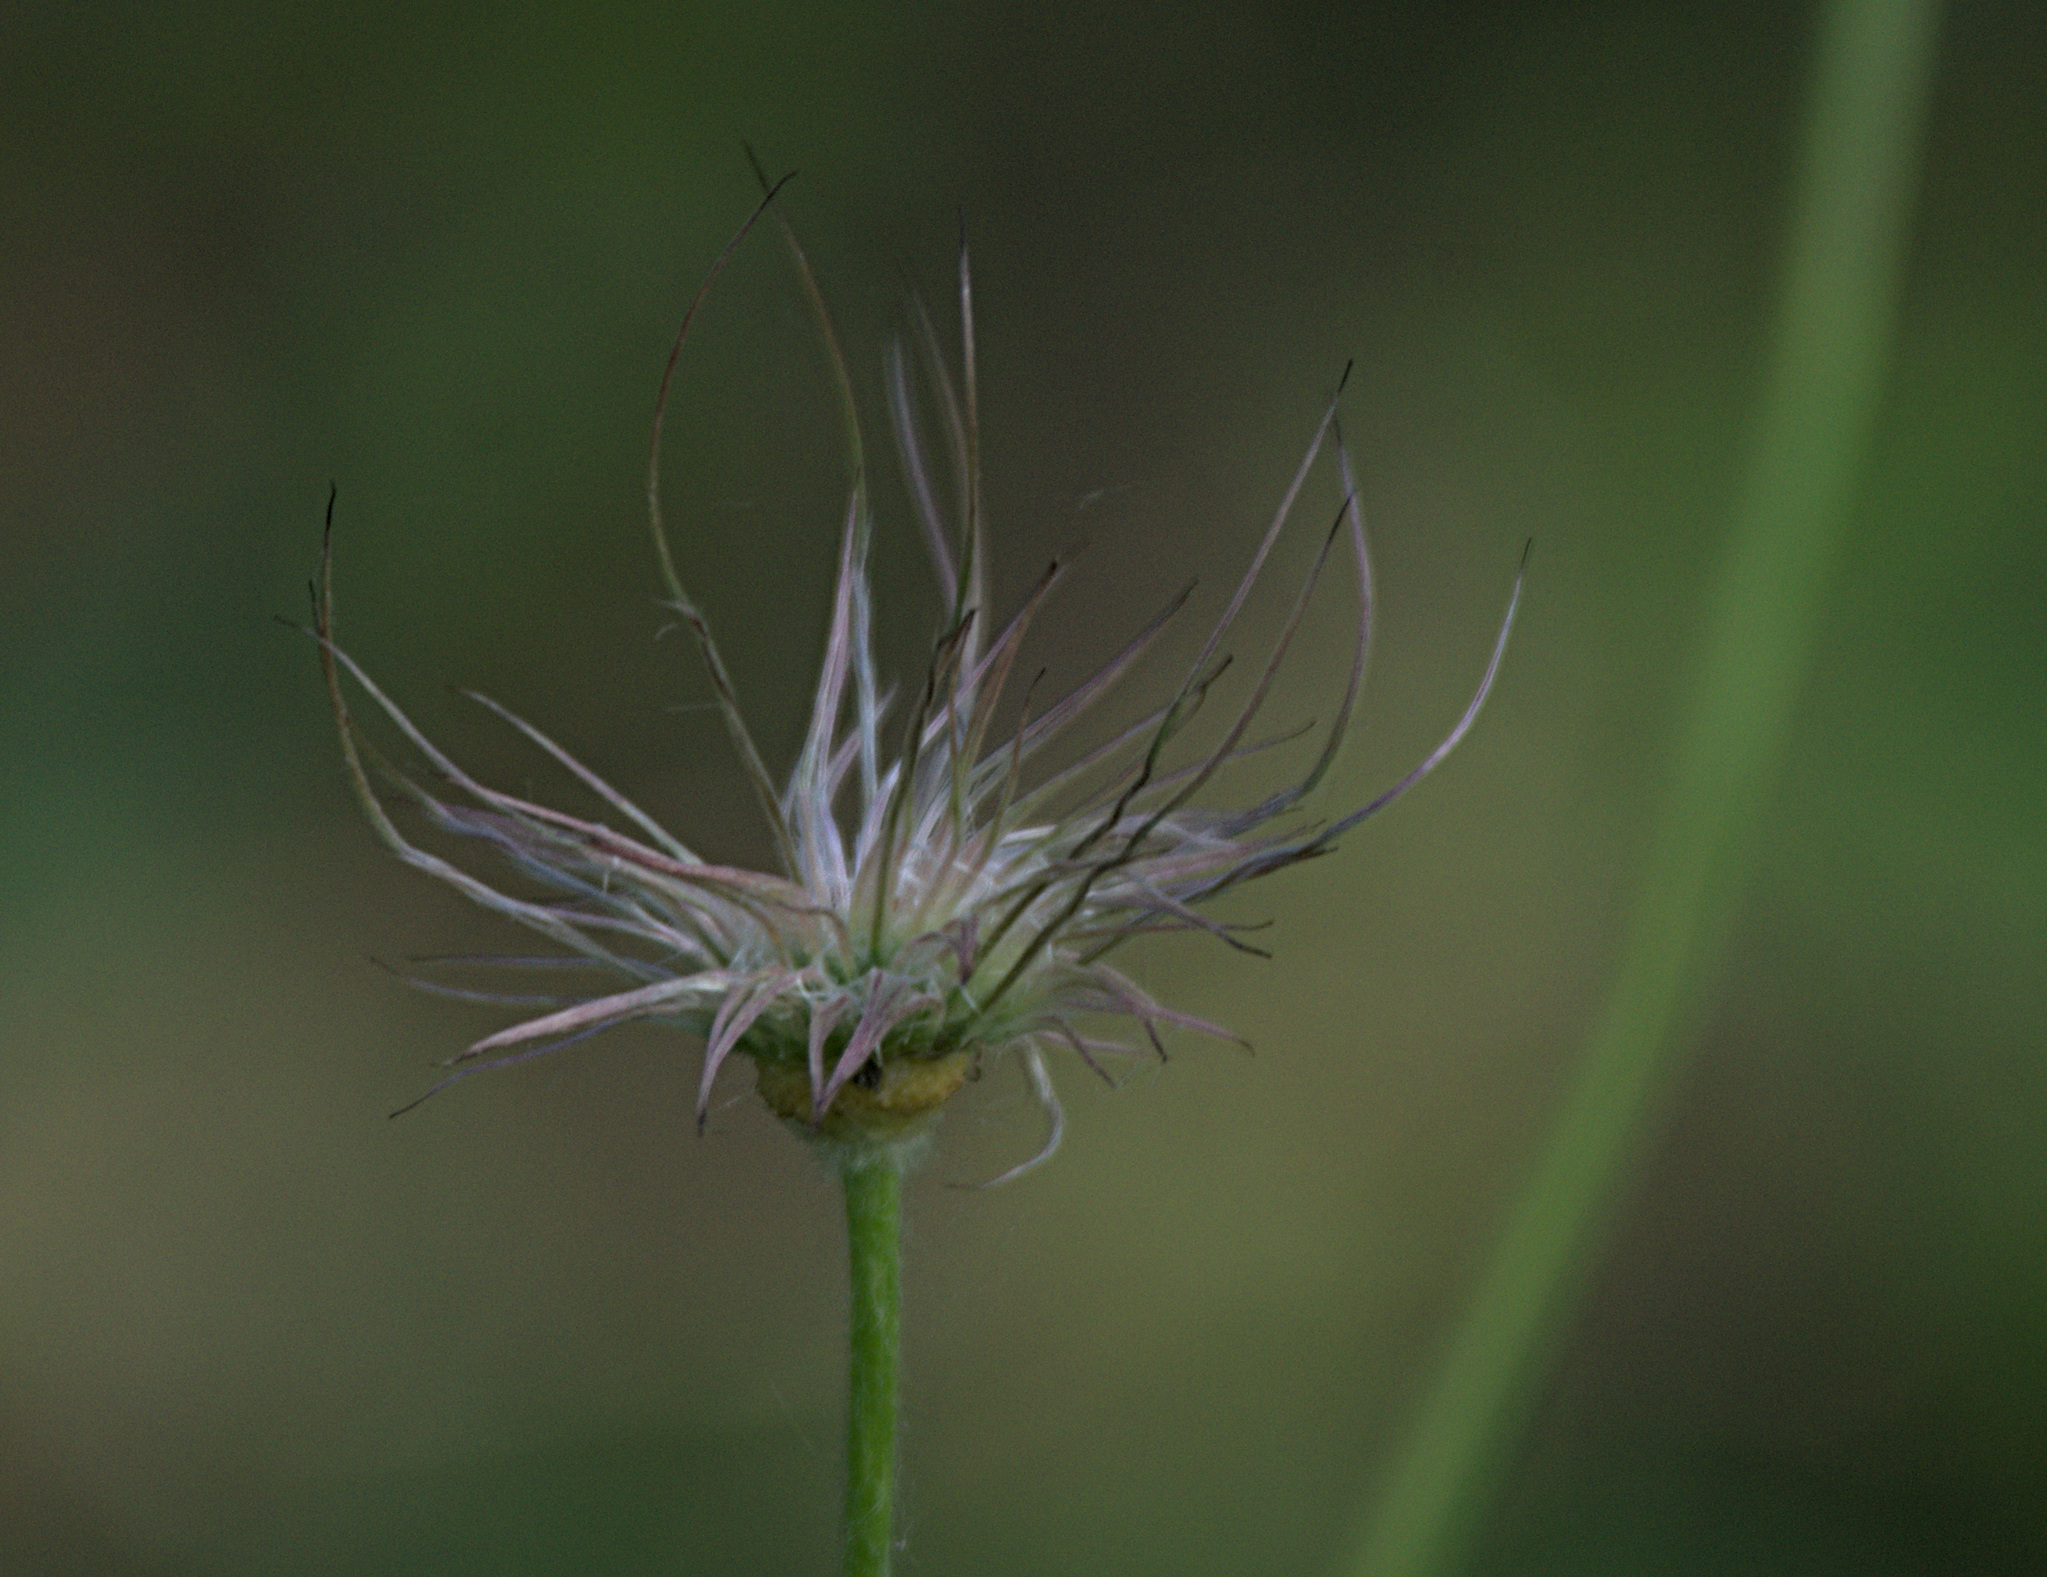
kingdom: Plantae
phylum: Tracheophyta
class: Magnoliopsida
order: Ranunculales
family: Ranunculaceae
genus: Pulsatilla
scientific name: Pulsatilla patens
